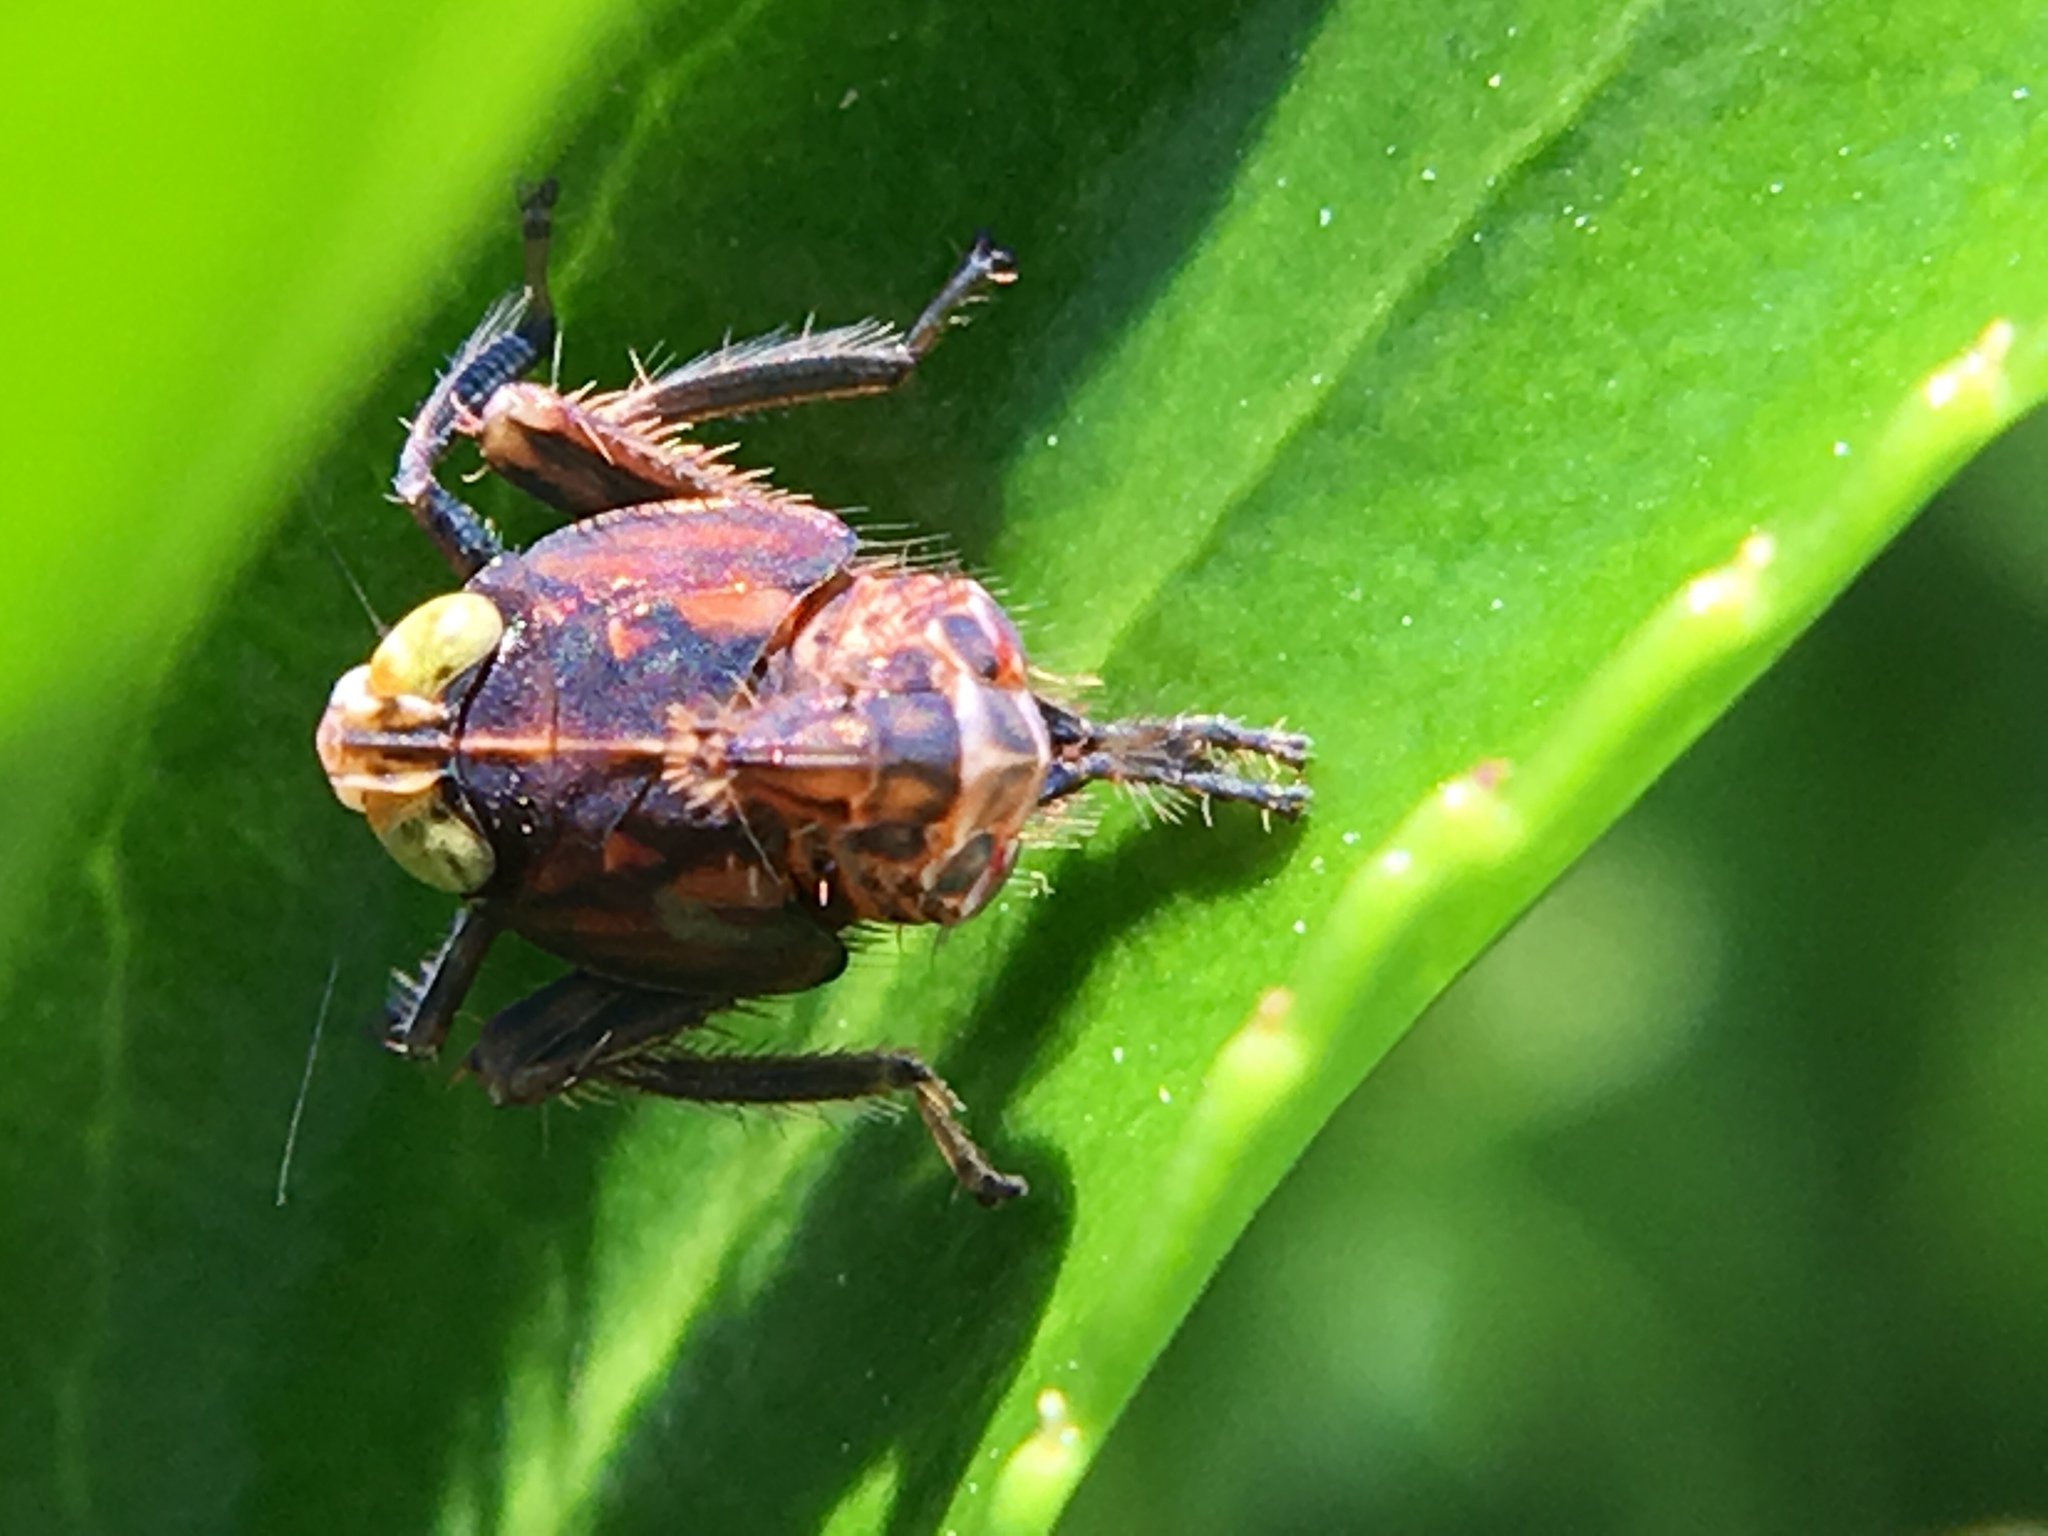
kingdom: Animalia
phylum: Arthropoda
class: Insecta
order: Hemiptera
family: Cicadellidae
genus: Jikradia
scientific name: Jikradia olitoria
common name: Coppery leafhopper
